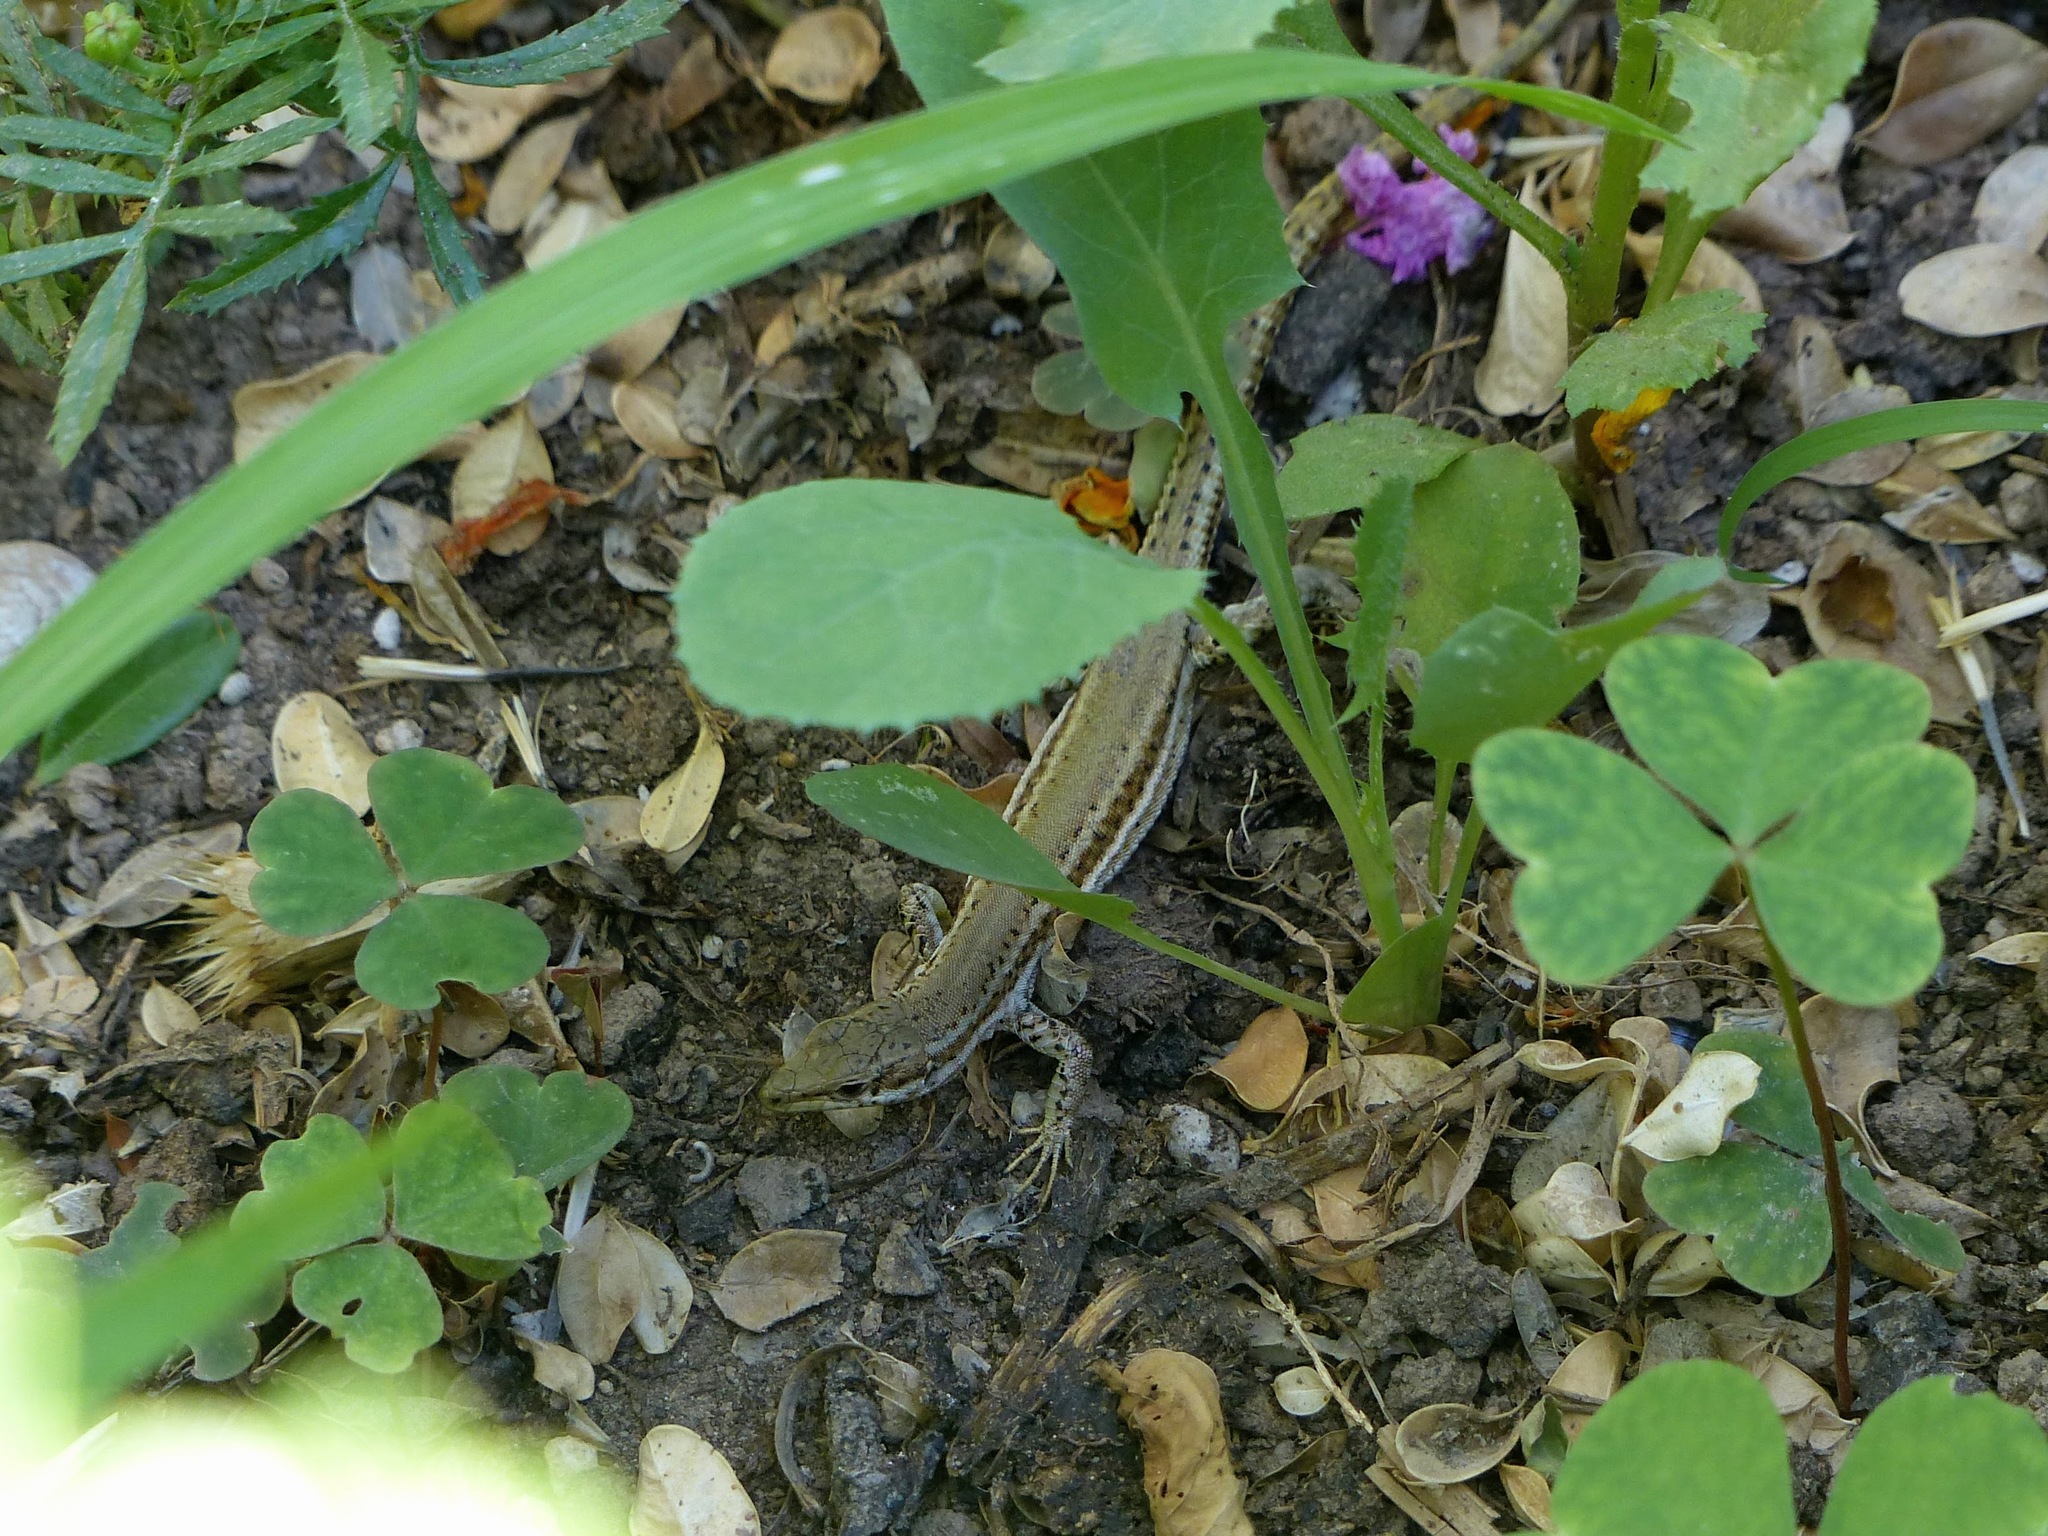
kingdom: Animalia
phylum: Chordata
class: Squamata
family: Lacertidae
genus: Podarcis
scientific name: Podarcis vaucheri
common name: Vaucher's wall lizard
